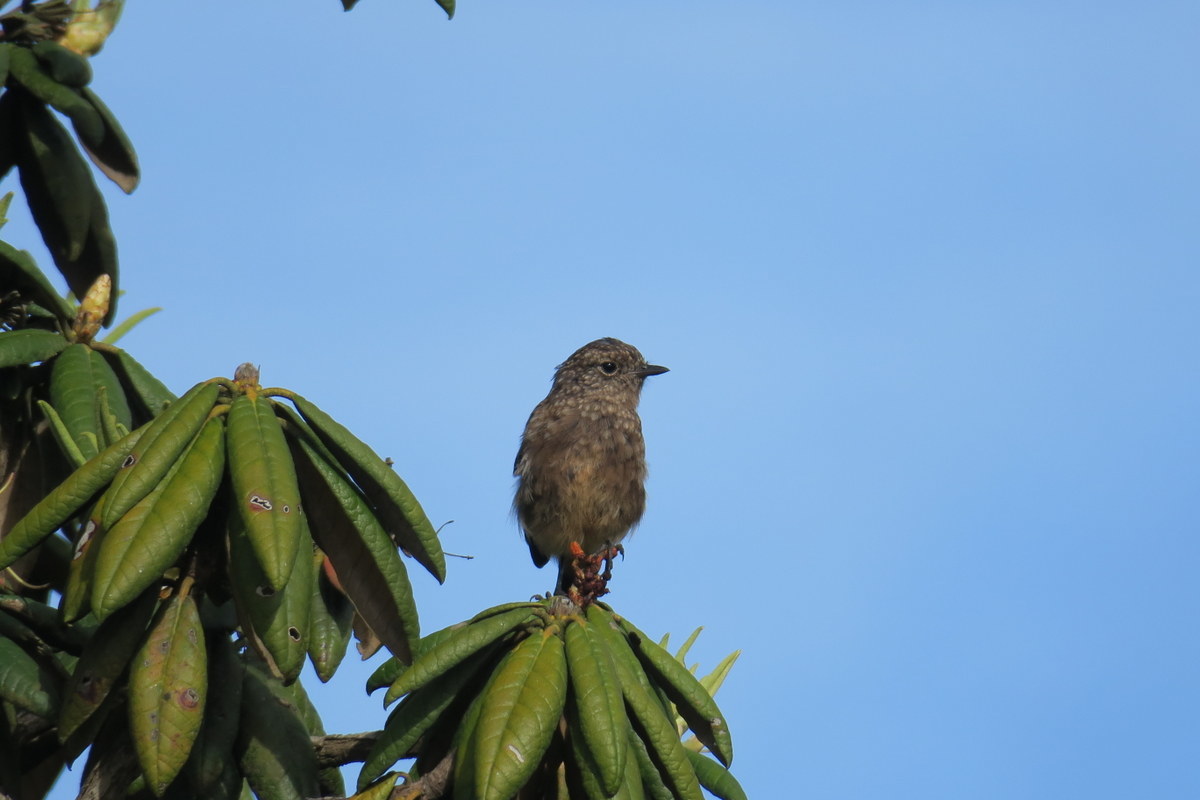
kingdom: Animalia
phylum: Chordata
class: Aves
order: Passeriformes
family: Muscicapidae
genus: Saxicola
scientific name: Saxicola caprata
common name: Pied bush chat
